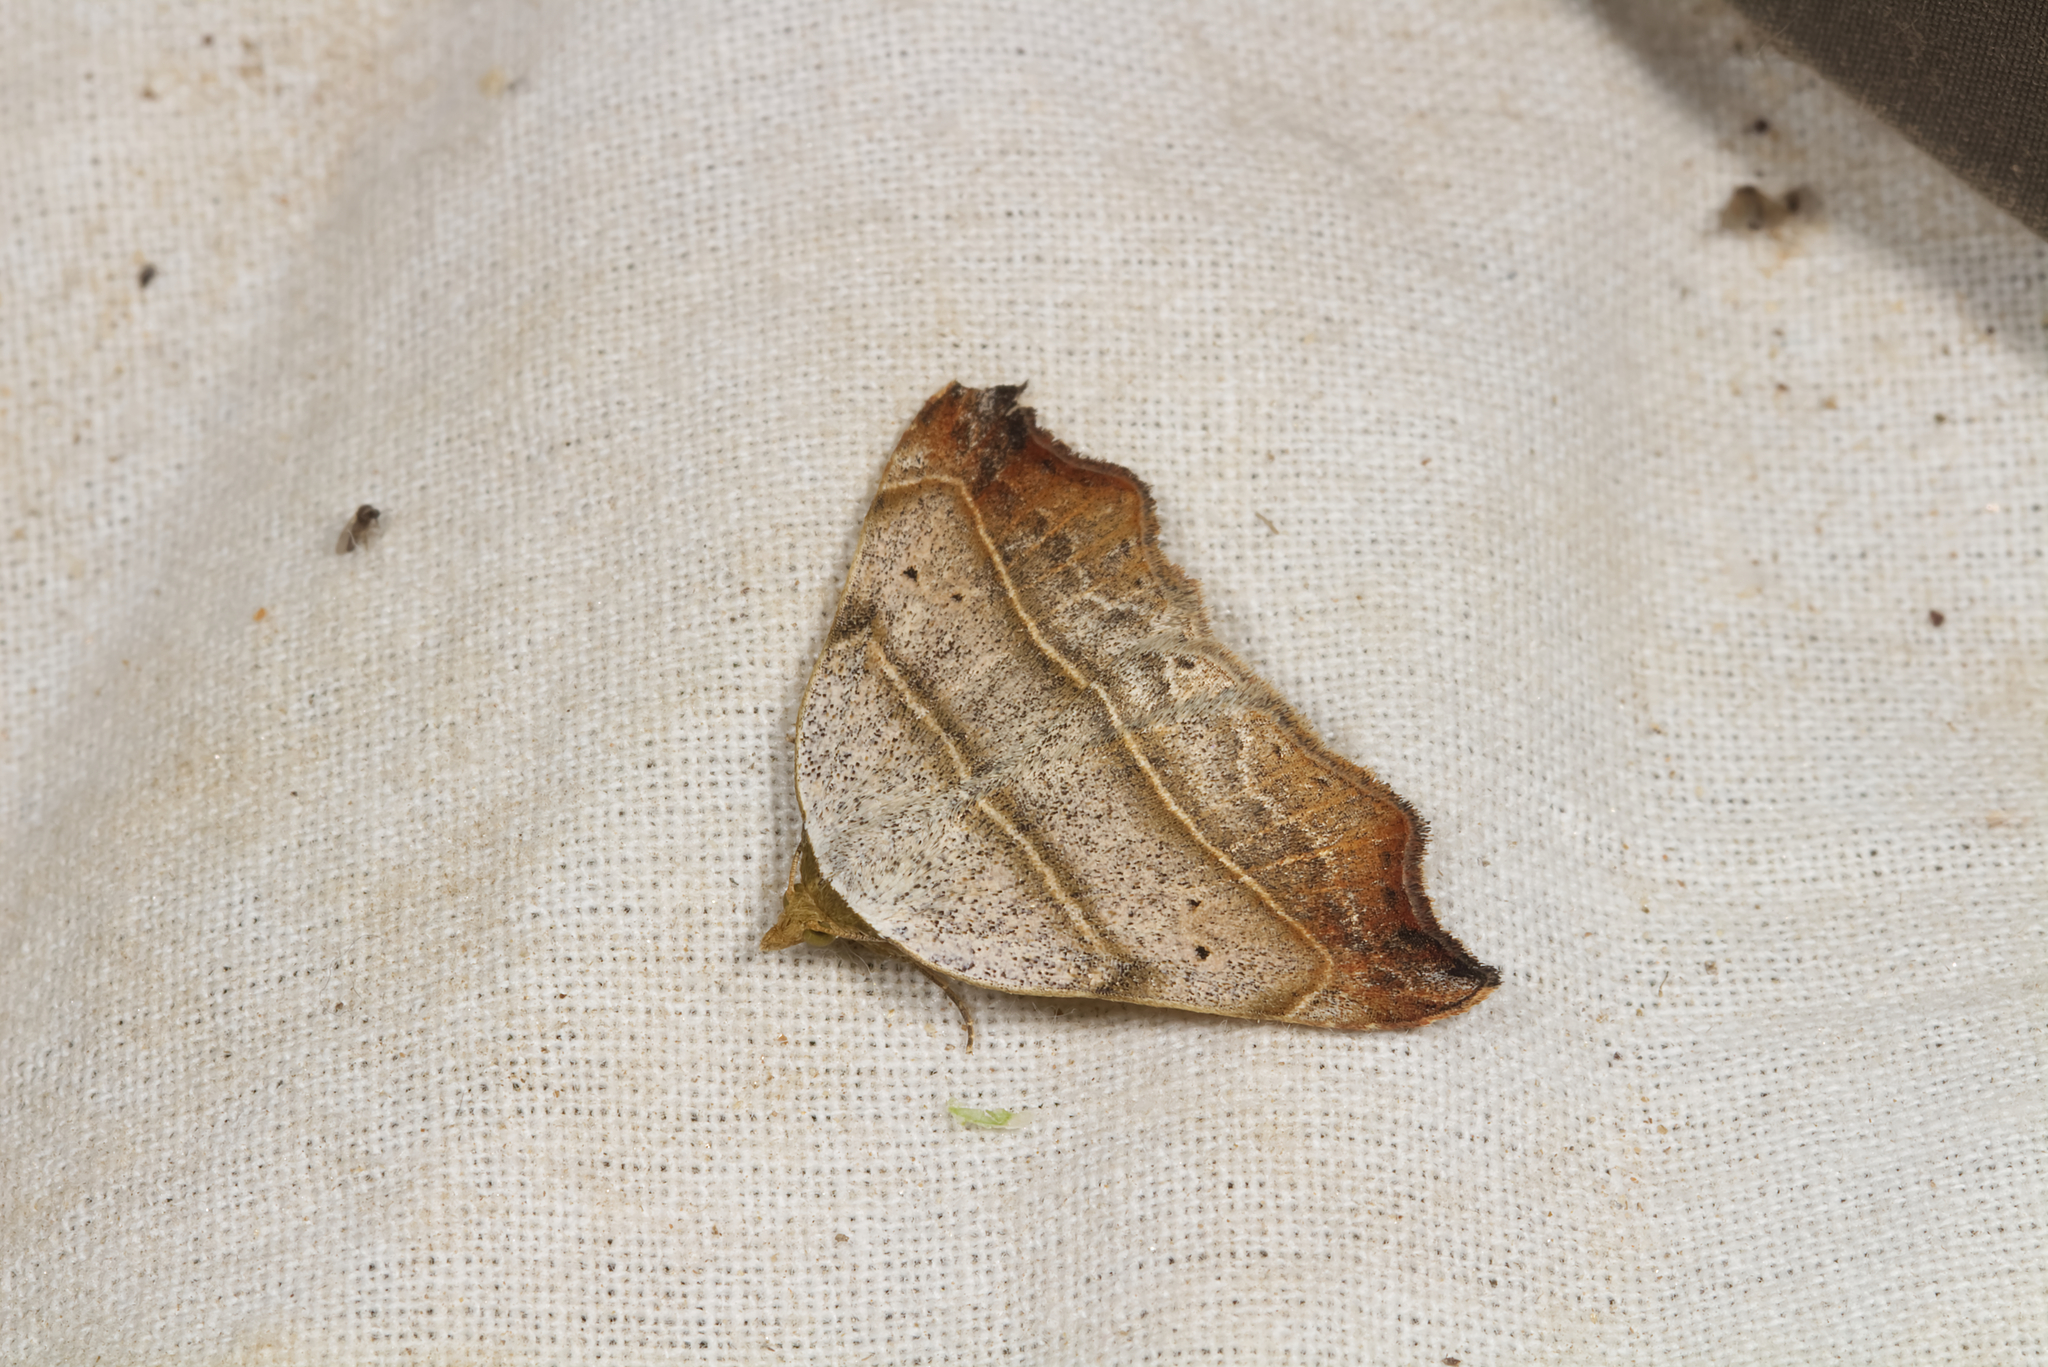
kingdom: Animalia
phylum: Arthropoda
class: Insecta
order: Lepidoptera
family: Erebidae
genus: Laspeyria
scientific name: Laspeyria flexula
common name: Beautiful hook-tip
